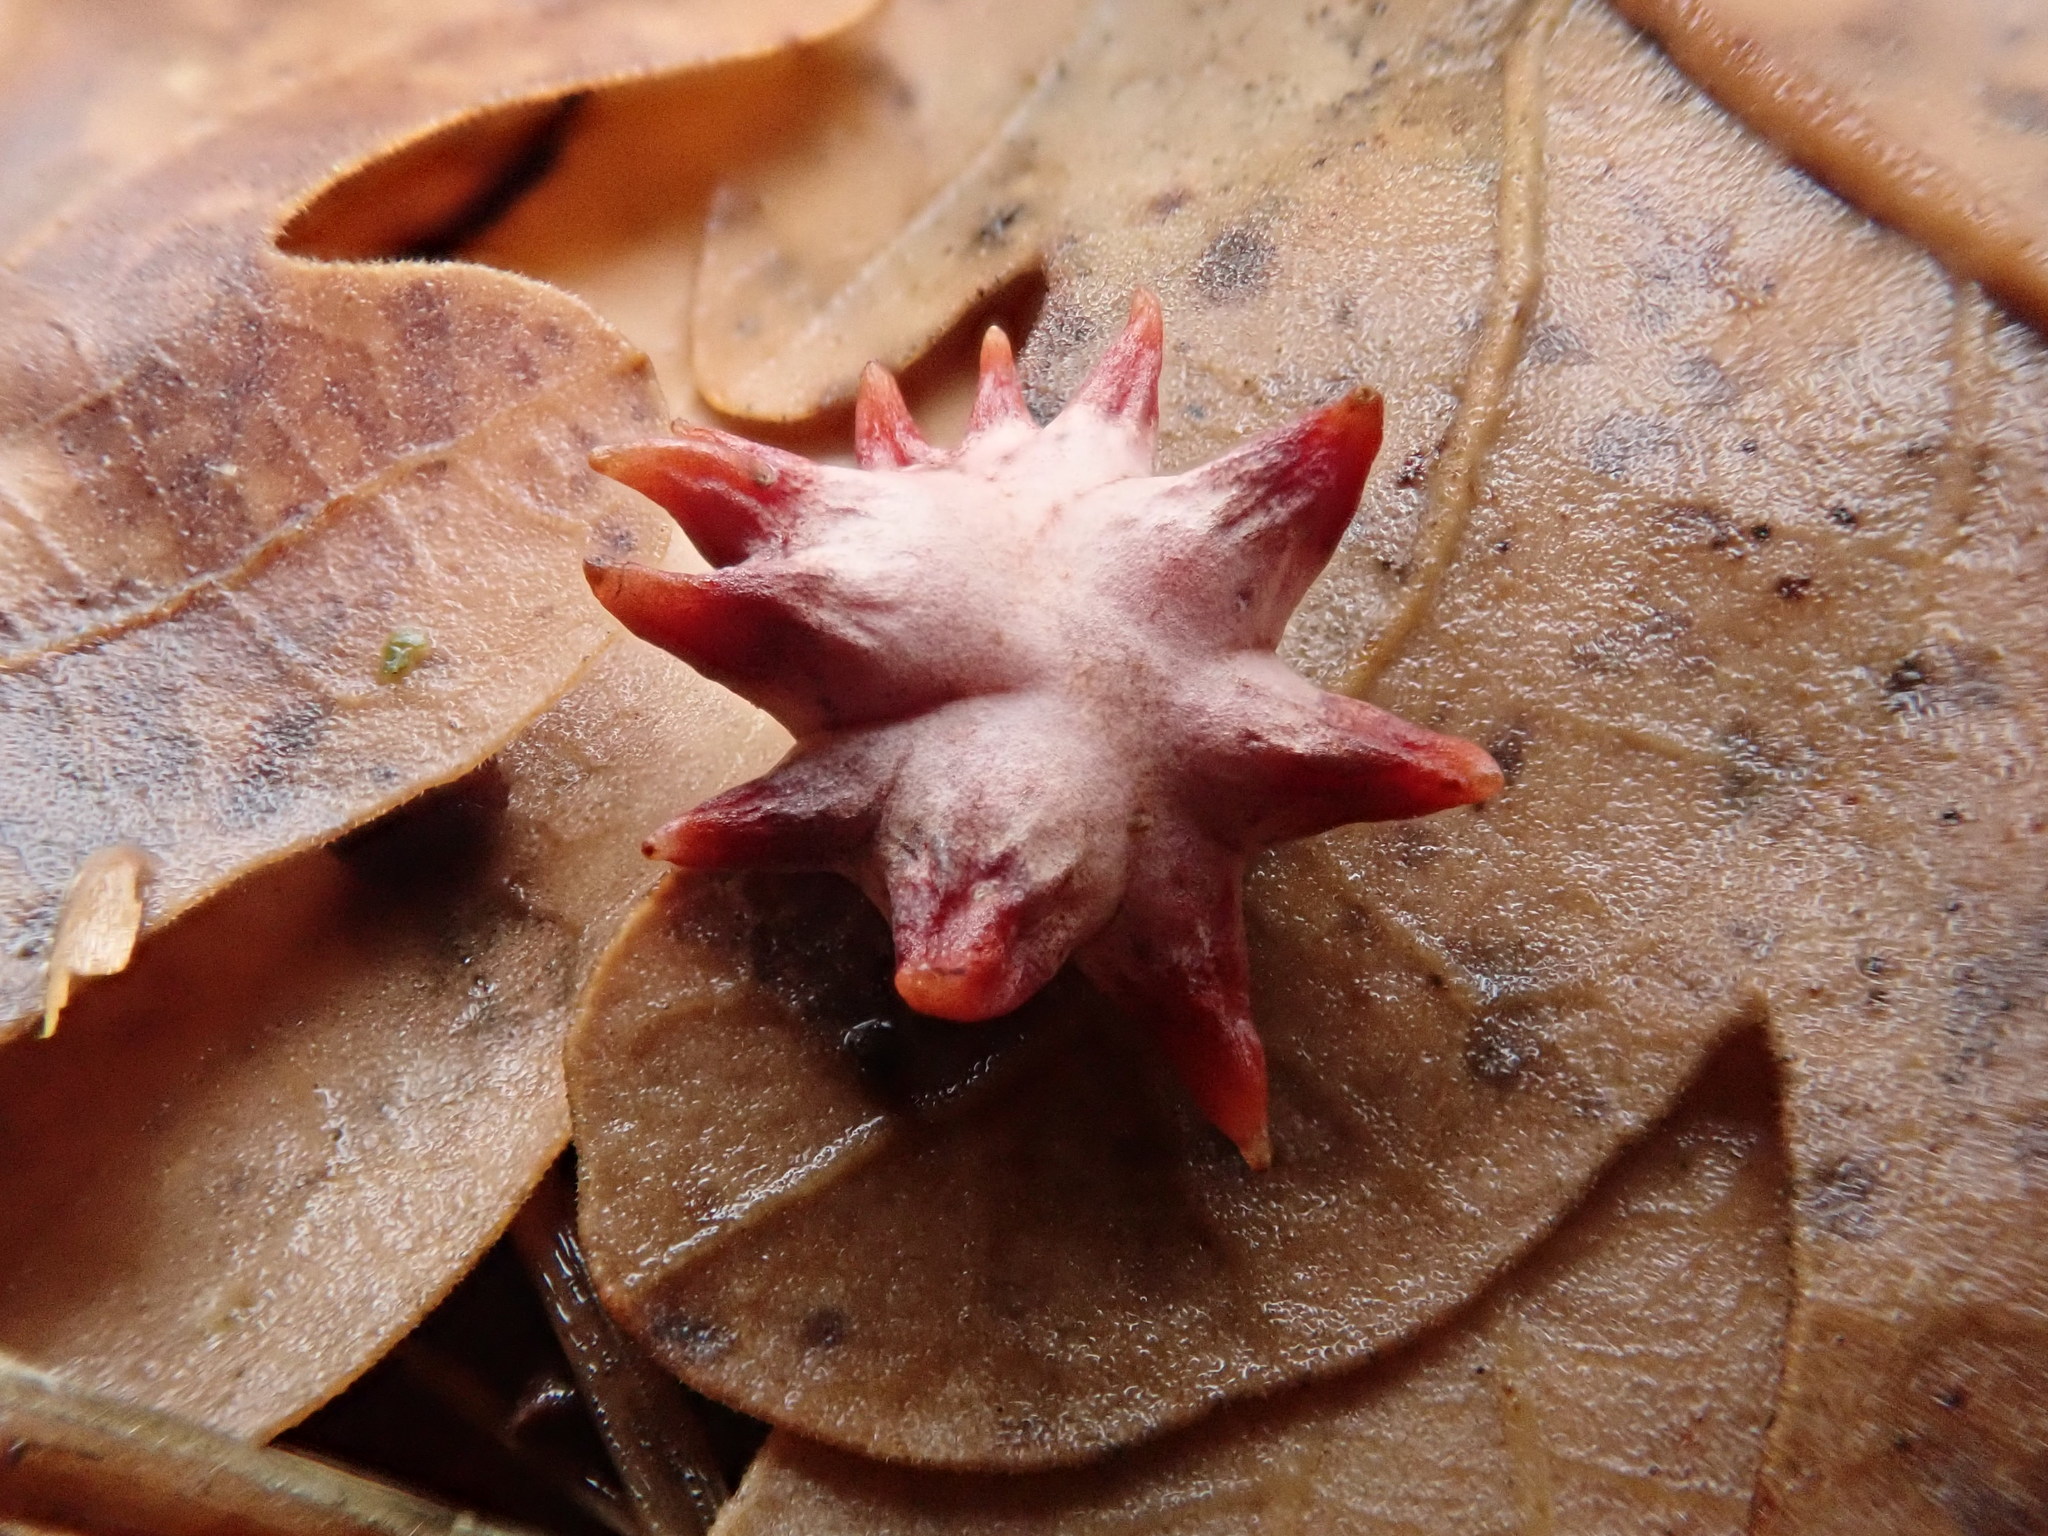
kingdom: Animalia
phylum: Arthropoda
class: Insecta
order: Hymenoptera
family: Cynipidae
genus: Cynips
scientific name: Cynips douglasi
